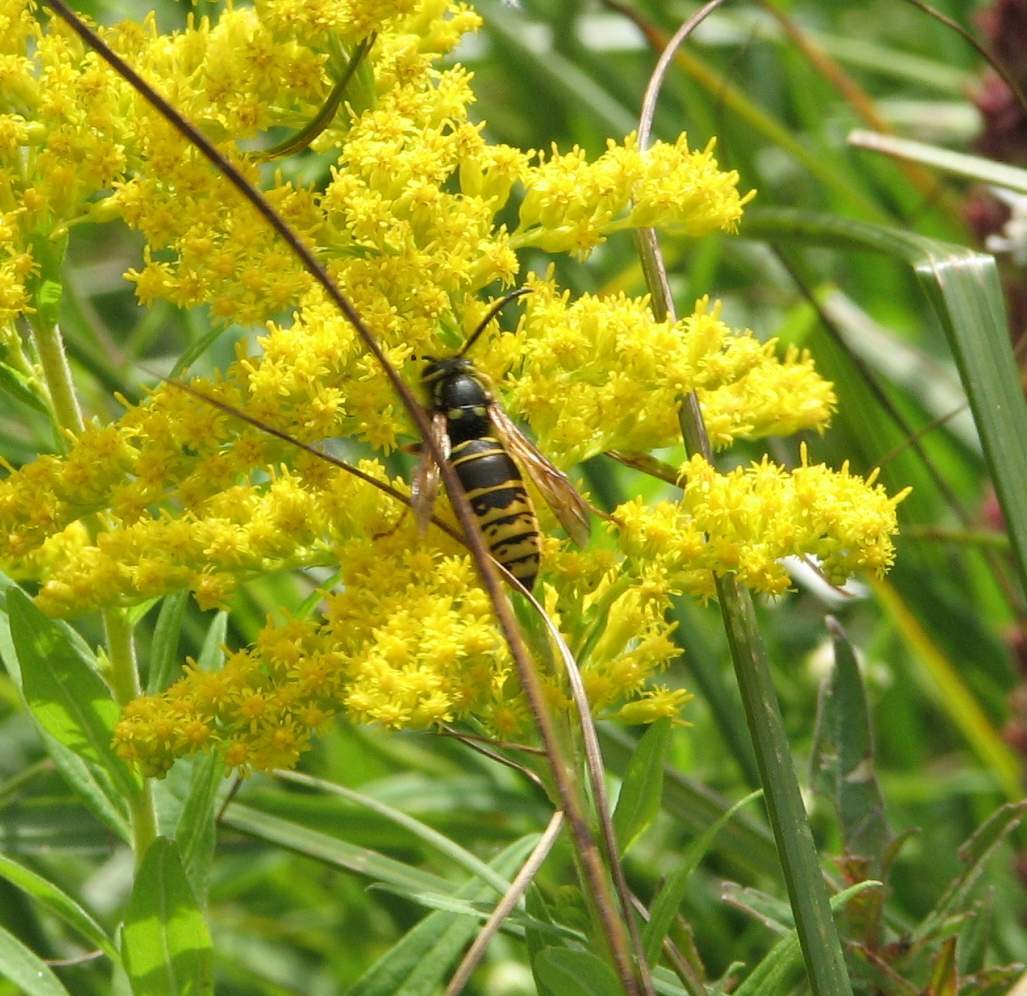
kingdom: Animalia
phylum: Arthropoda
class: Insecta
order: Hymenoptera
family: Vespidae
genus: Vespula
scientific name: Vespula vidua
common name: Widow yellowjacket
